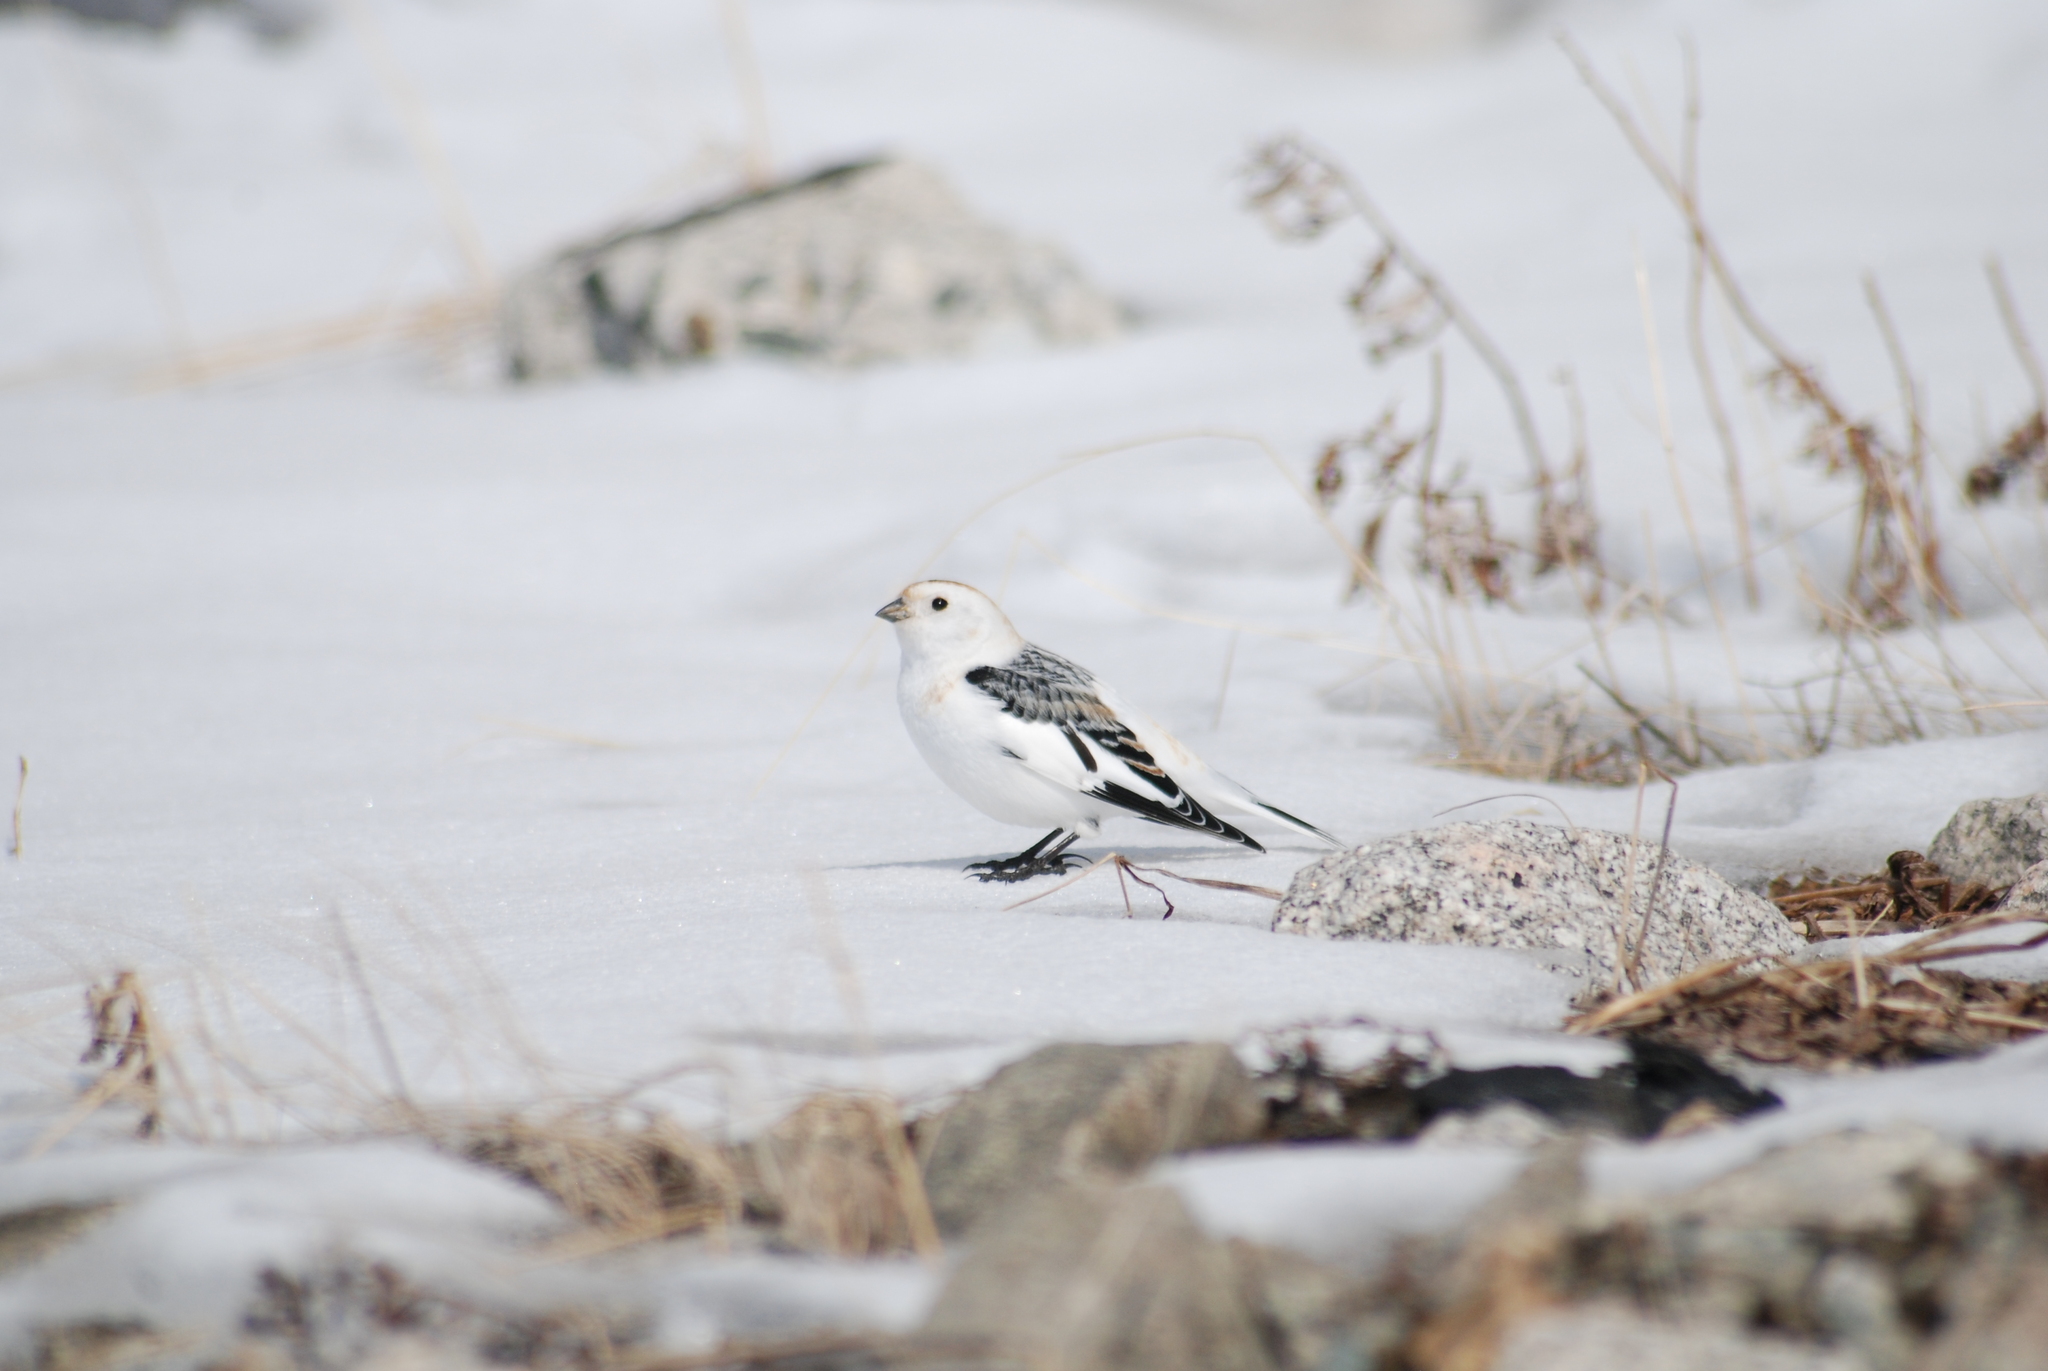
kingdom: Animalia
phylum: Chordata
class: Aves
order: Passeriformes
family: Calcariidae
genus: Plectrophenax
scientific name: Plectrophenax nivalis
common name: Snow bunting
